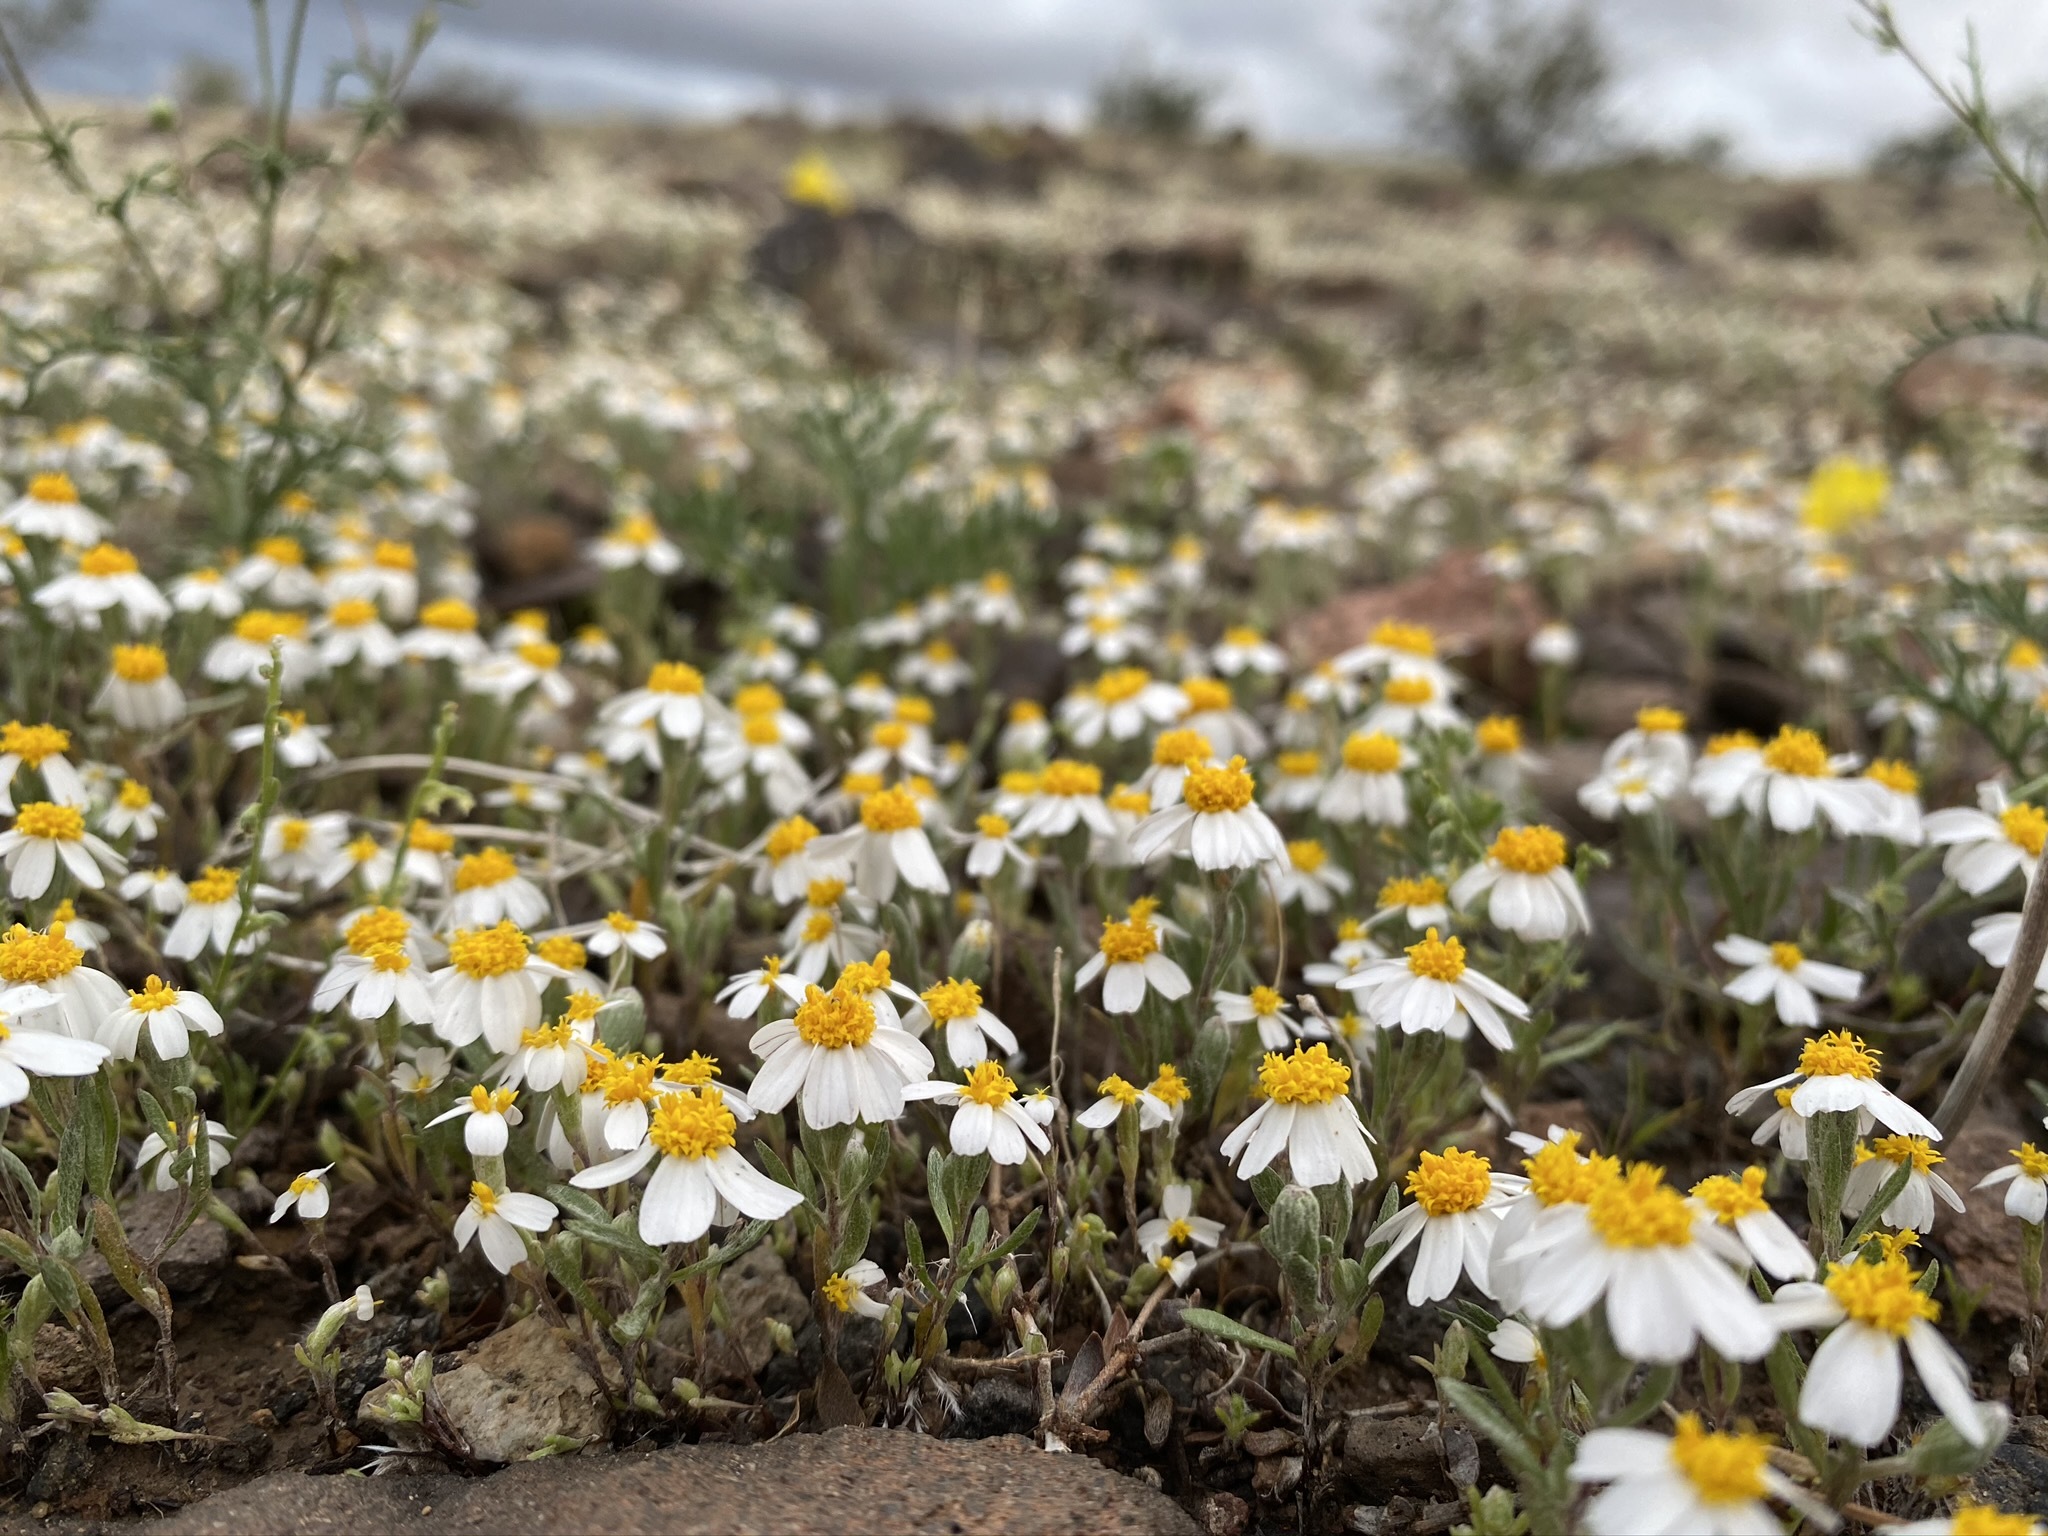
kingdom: Plantae
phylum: Tracheophyta
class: Magnoliopsida
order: Asterales
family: Asteraceae
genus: Eriophyllum
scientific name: Eriophyllum lanosum
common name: White easter-bonnets
